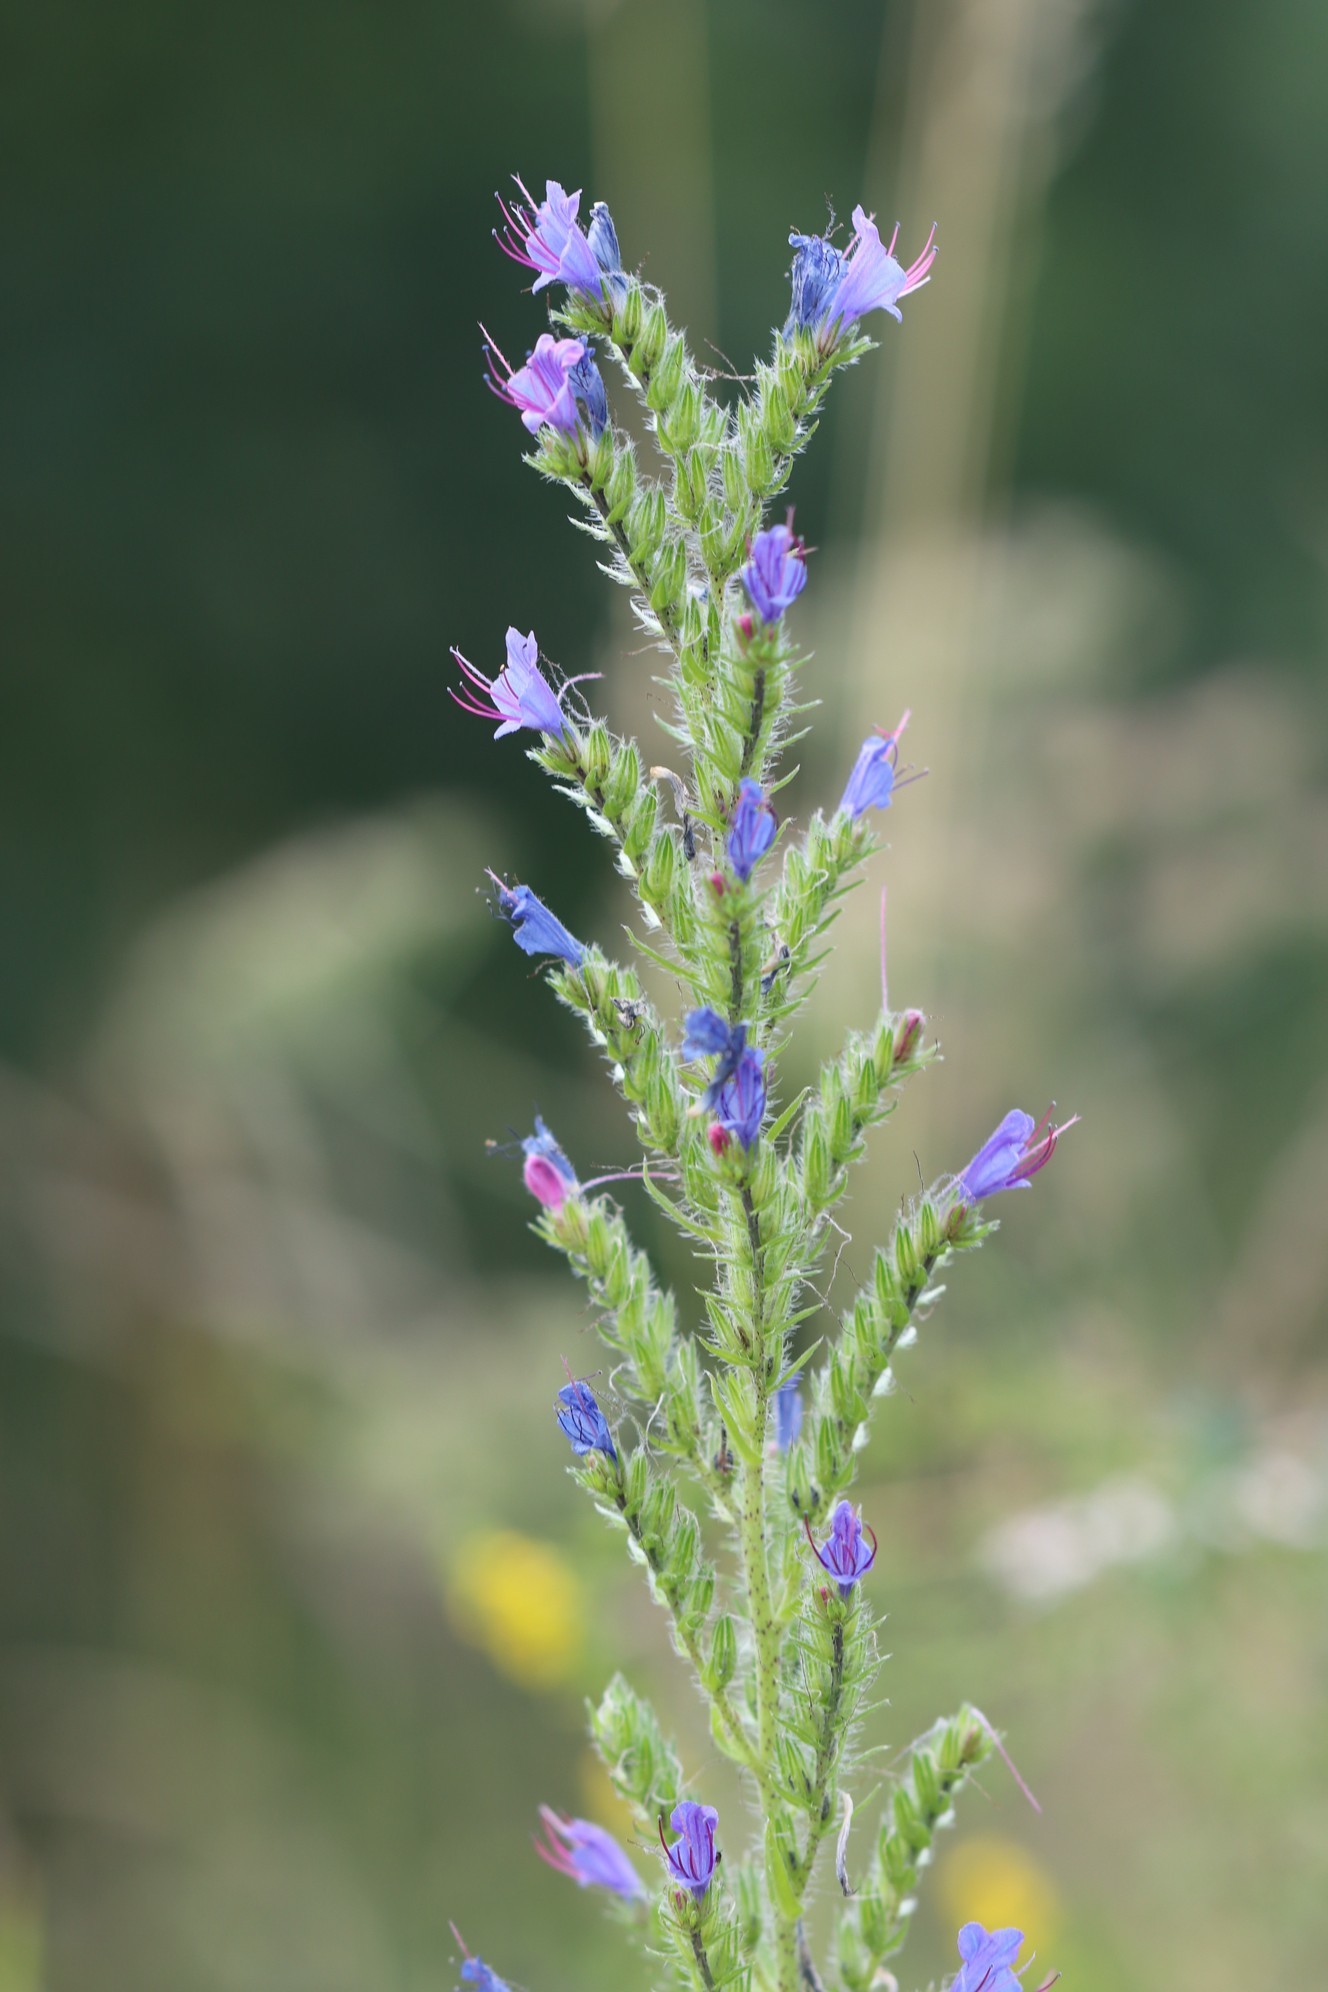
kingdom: Plantae
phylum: Tracheophyta
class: Magnoliopsida
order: Boraginales
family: Boraginaceae
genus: Echium
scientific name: Echium vulgare
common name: Common viper's bugloss
